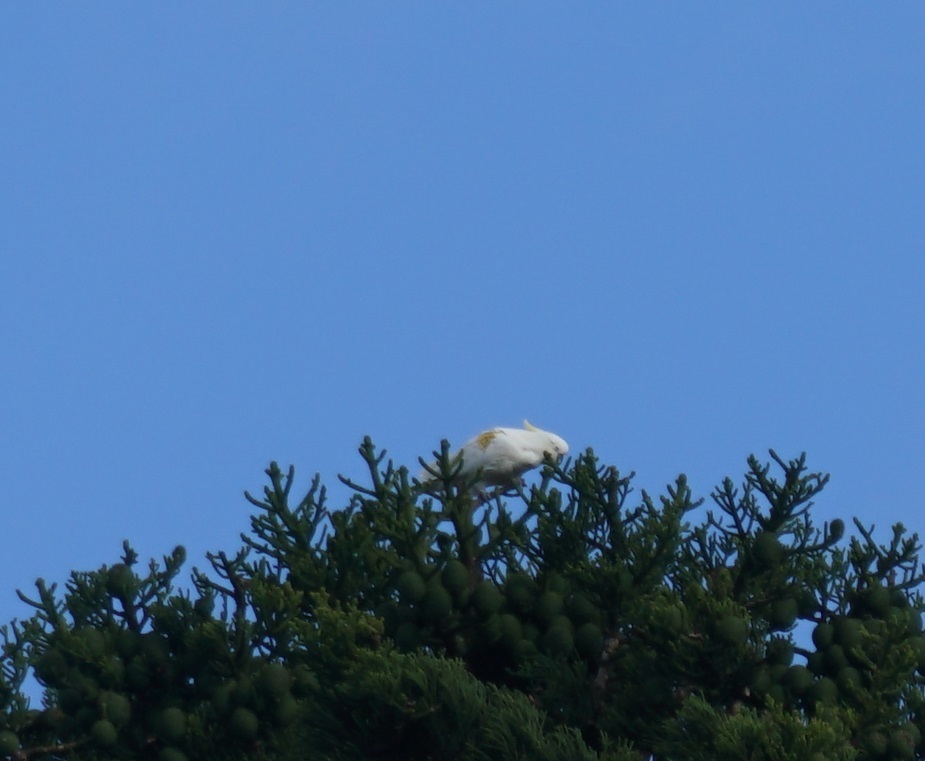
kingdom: Animalia
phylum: Chordata
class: Aves
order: Psittaciformes
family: Psittacidae
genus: Cacatua
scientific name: Cacatua galerita
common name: Sulphur-crested cockatoo
